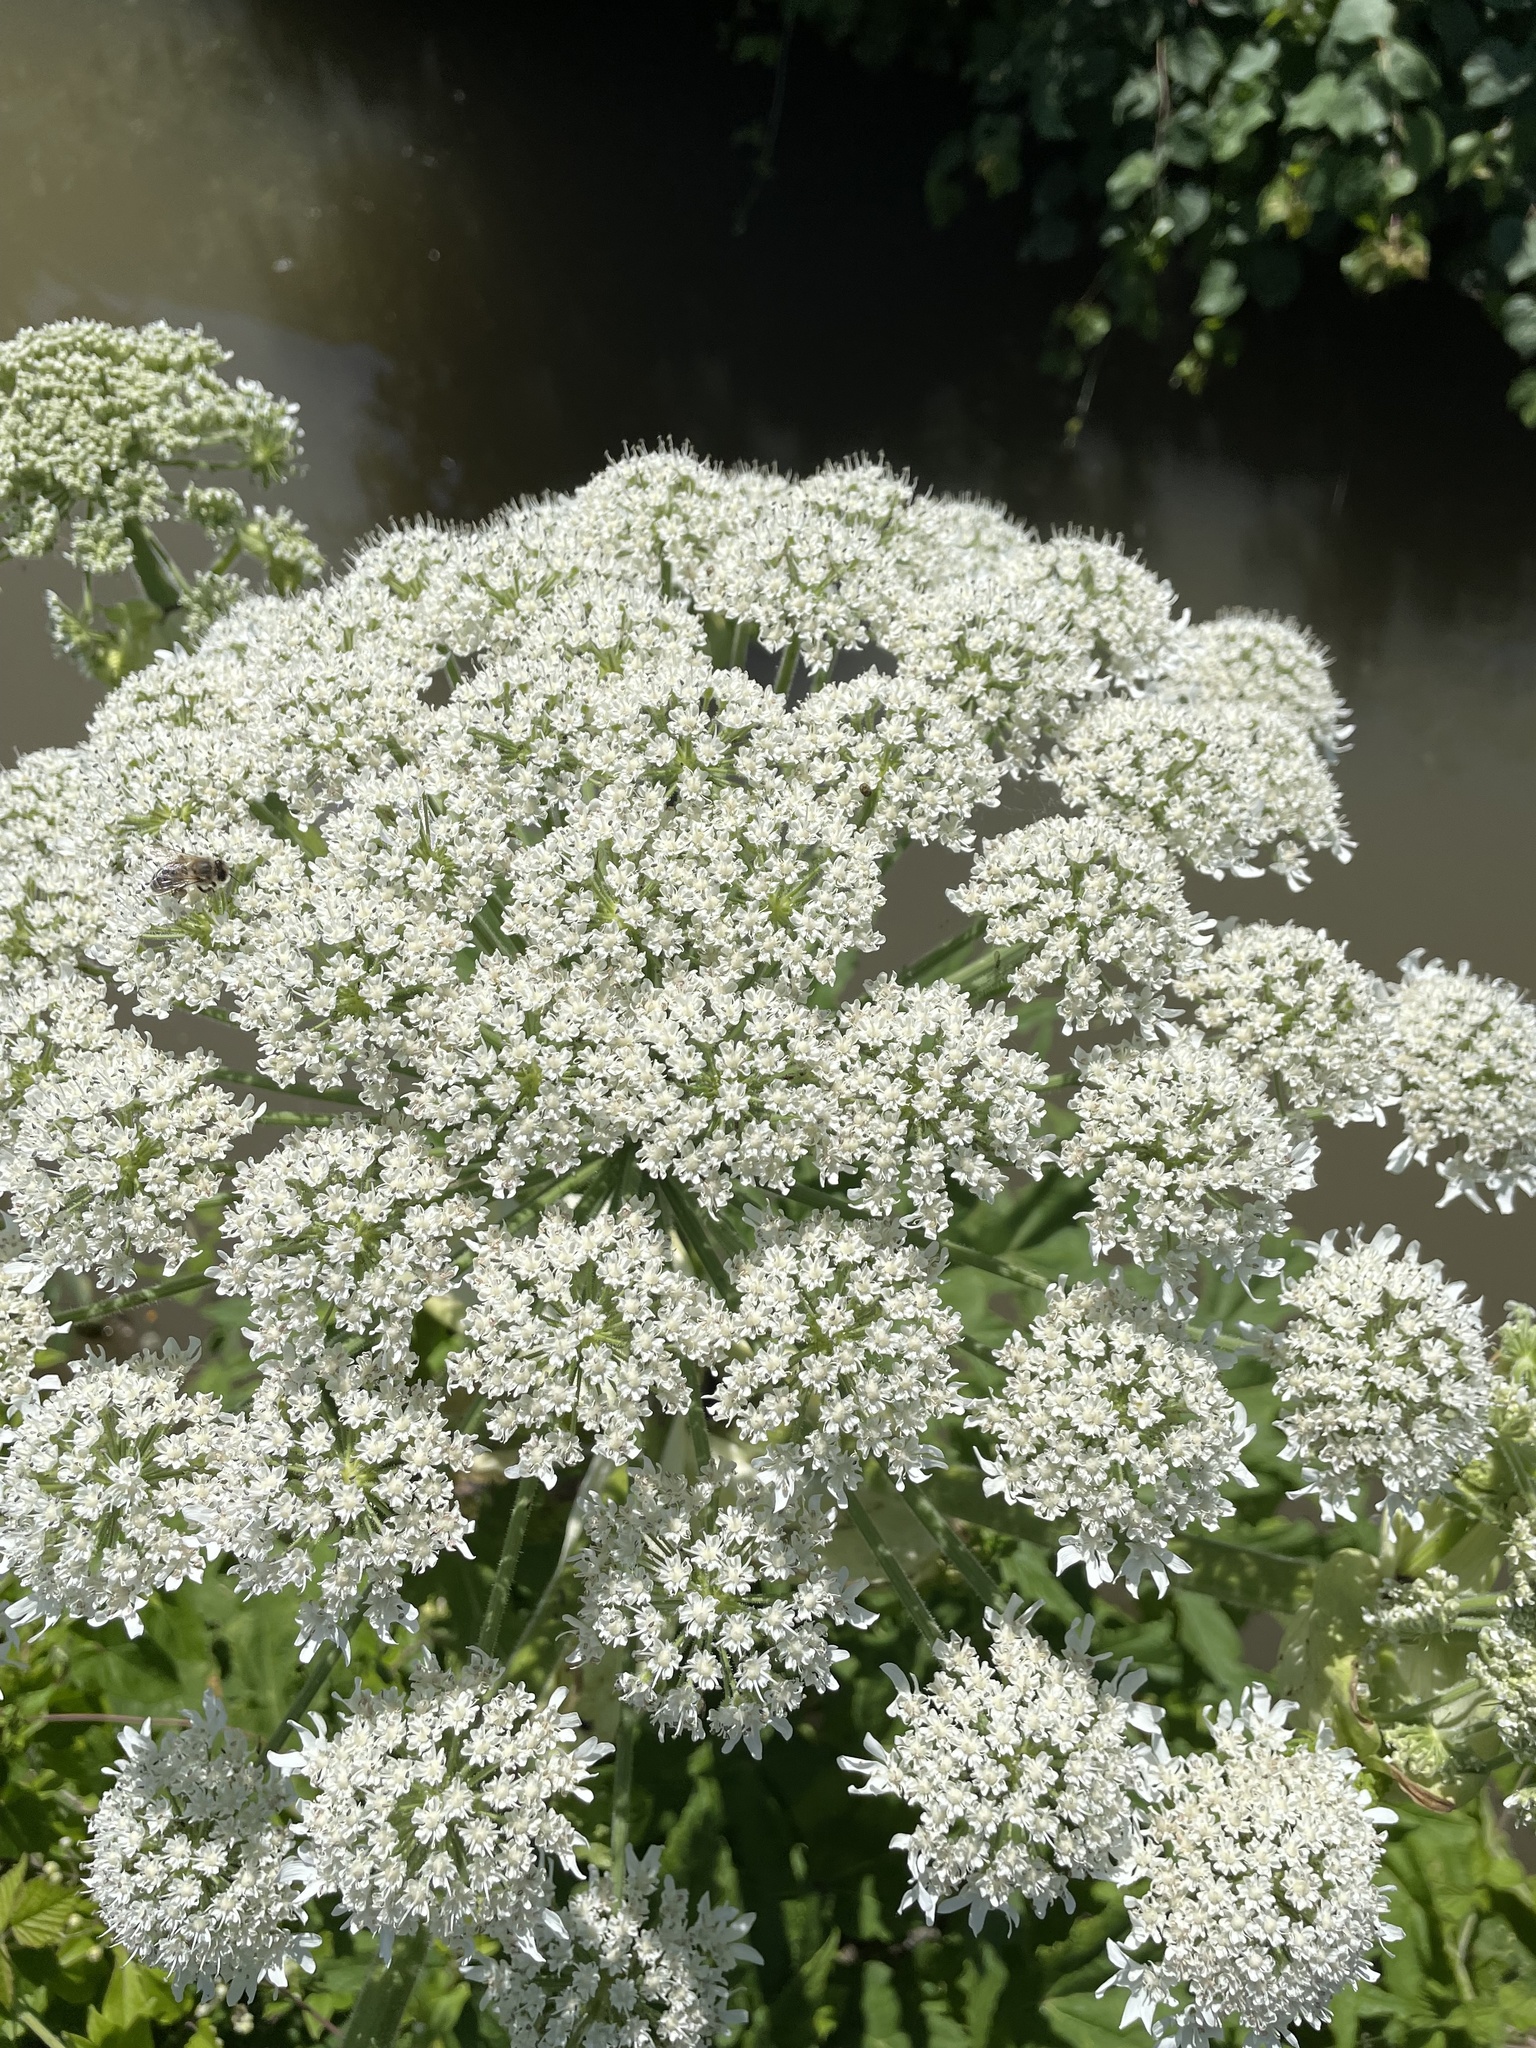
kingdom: Plantae
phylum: Tracheophyta
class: Magnoliopsida
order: Apiales
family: Apiaceae
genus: Heracleum
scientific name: Heracleum mantegazzianum
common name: Giant hogweed
